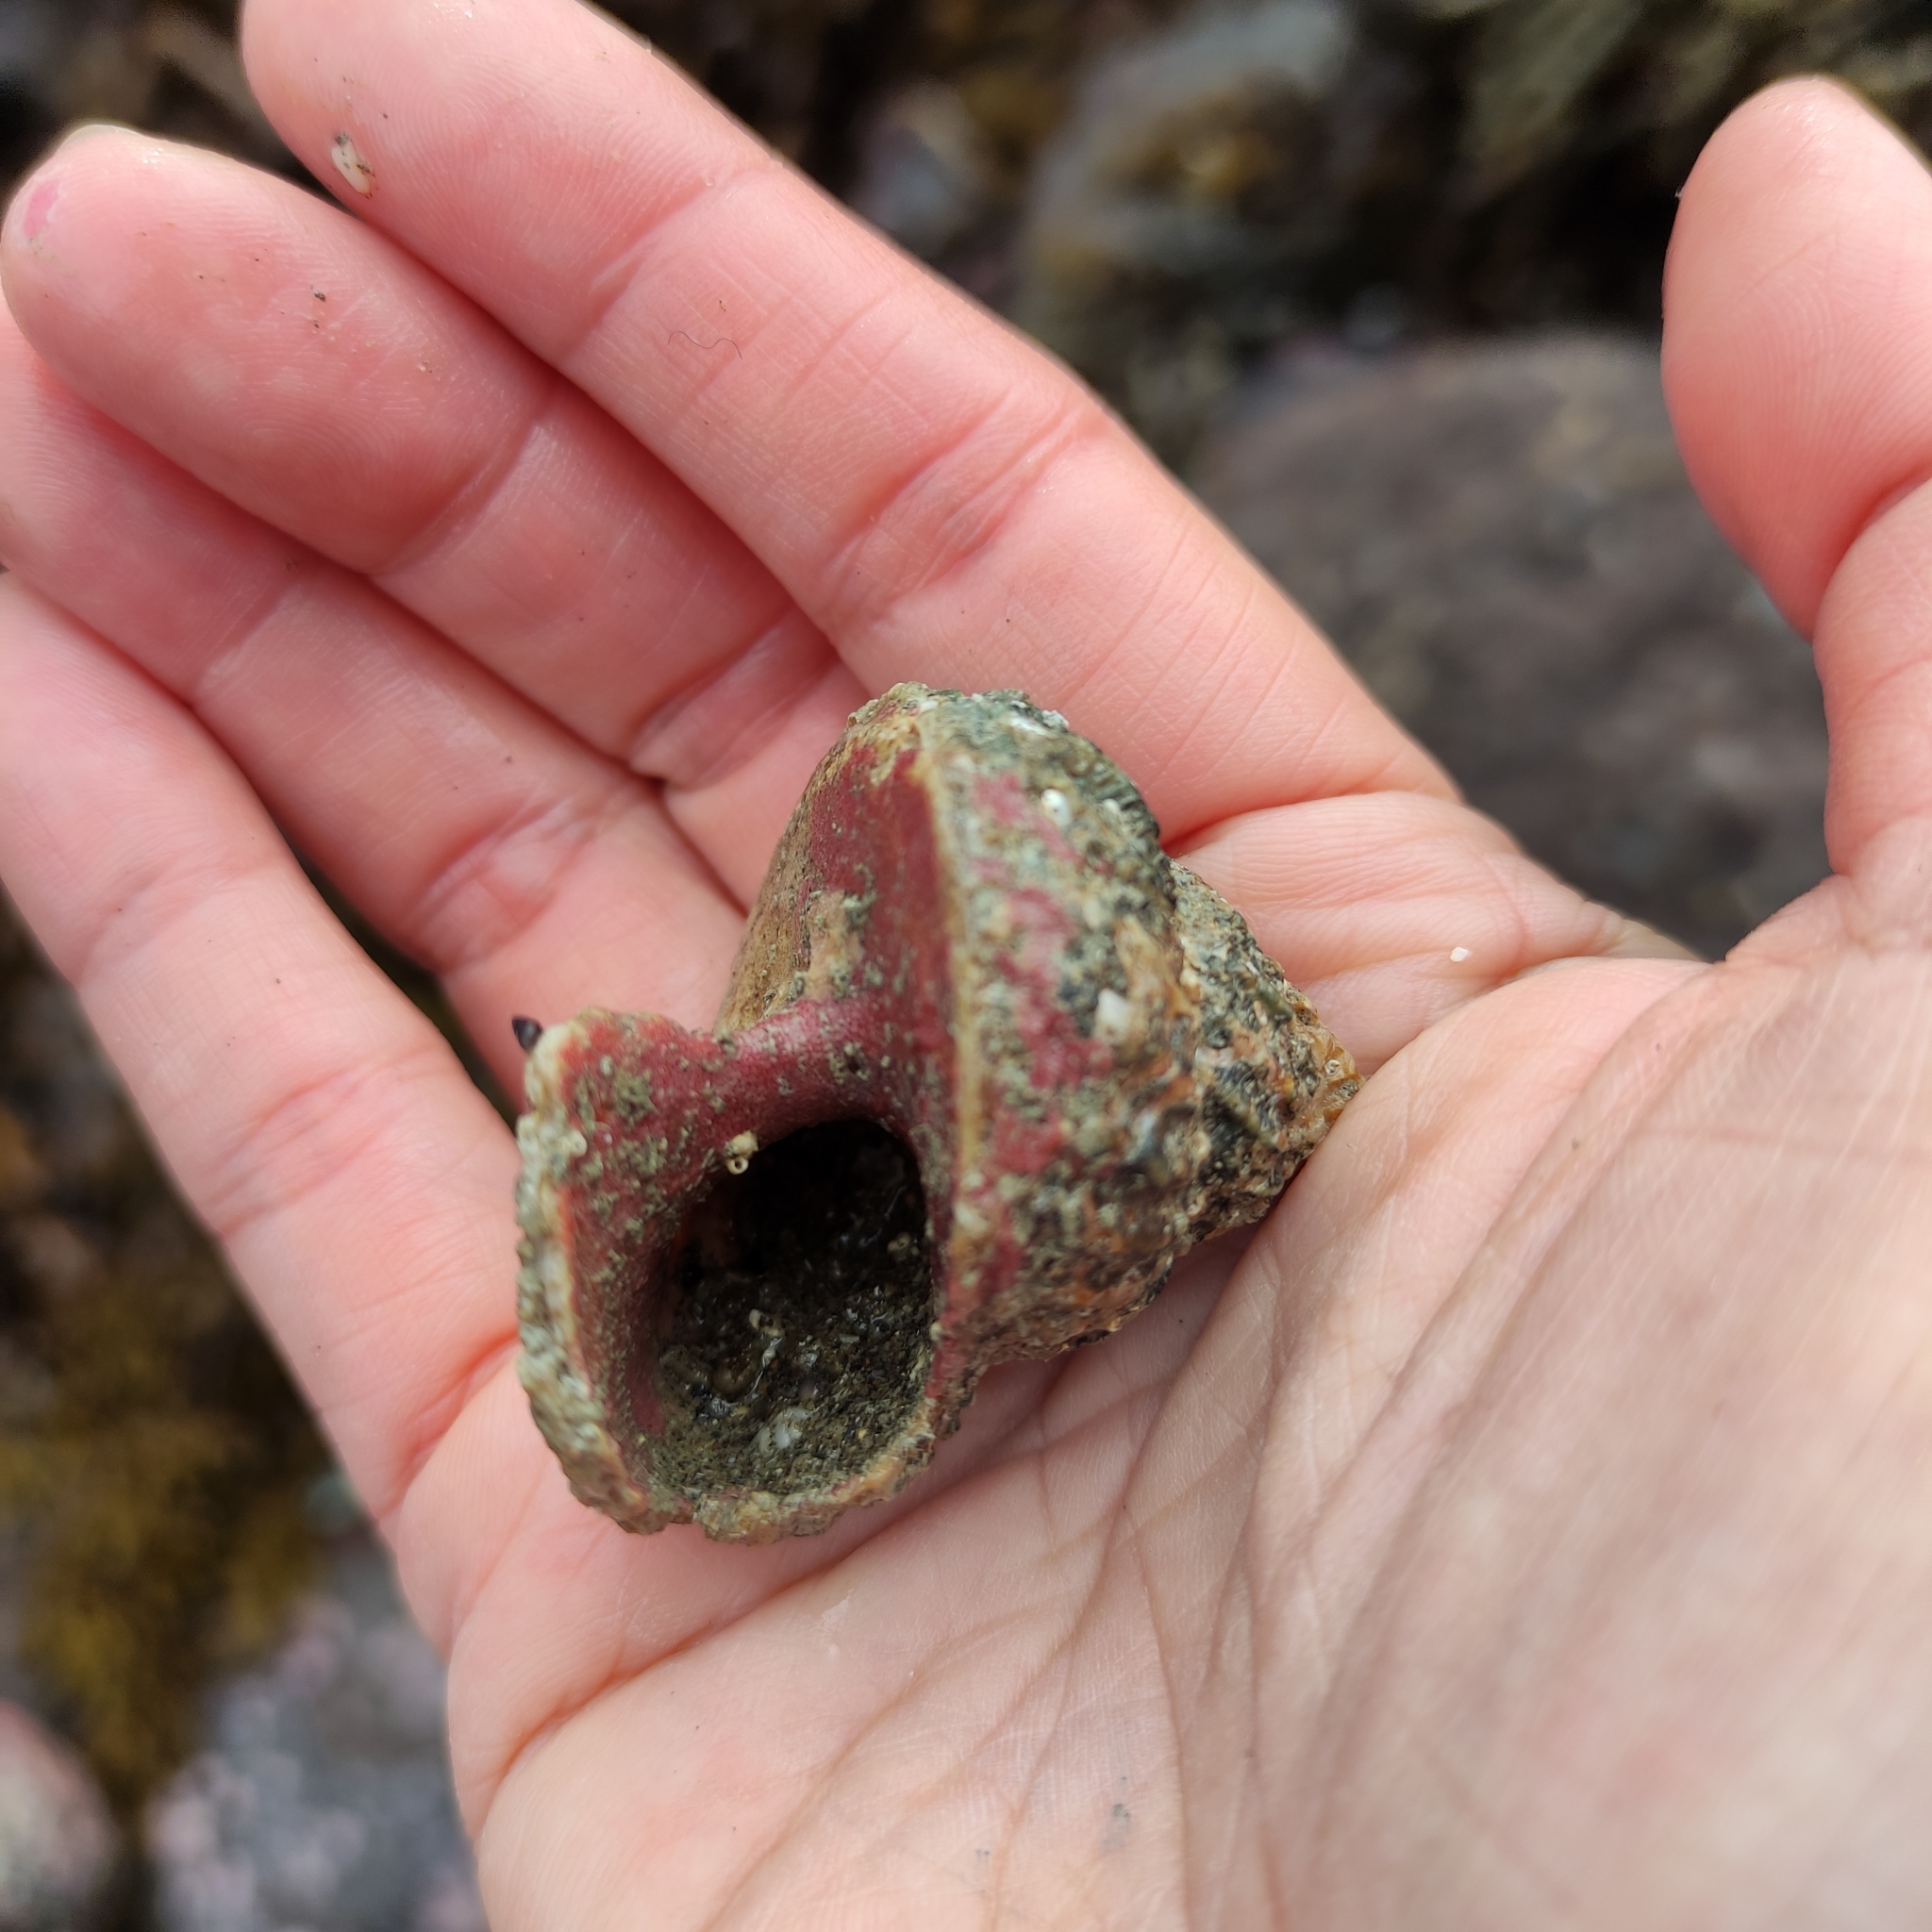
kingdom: Animalia
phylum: Mollusca
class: Gastropoda
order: Trochida
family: Turbinidae
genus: Cookia
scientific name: Cookia sulcata
